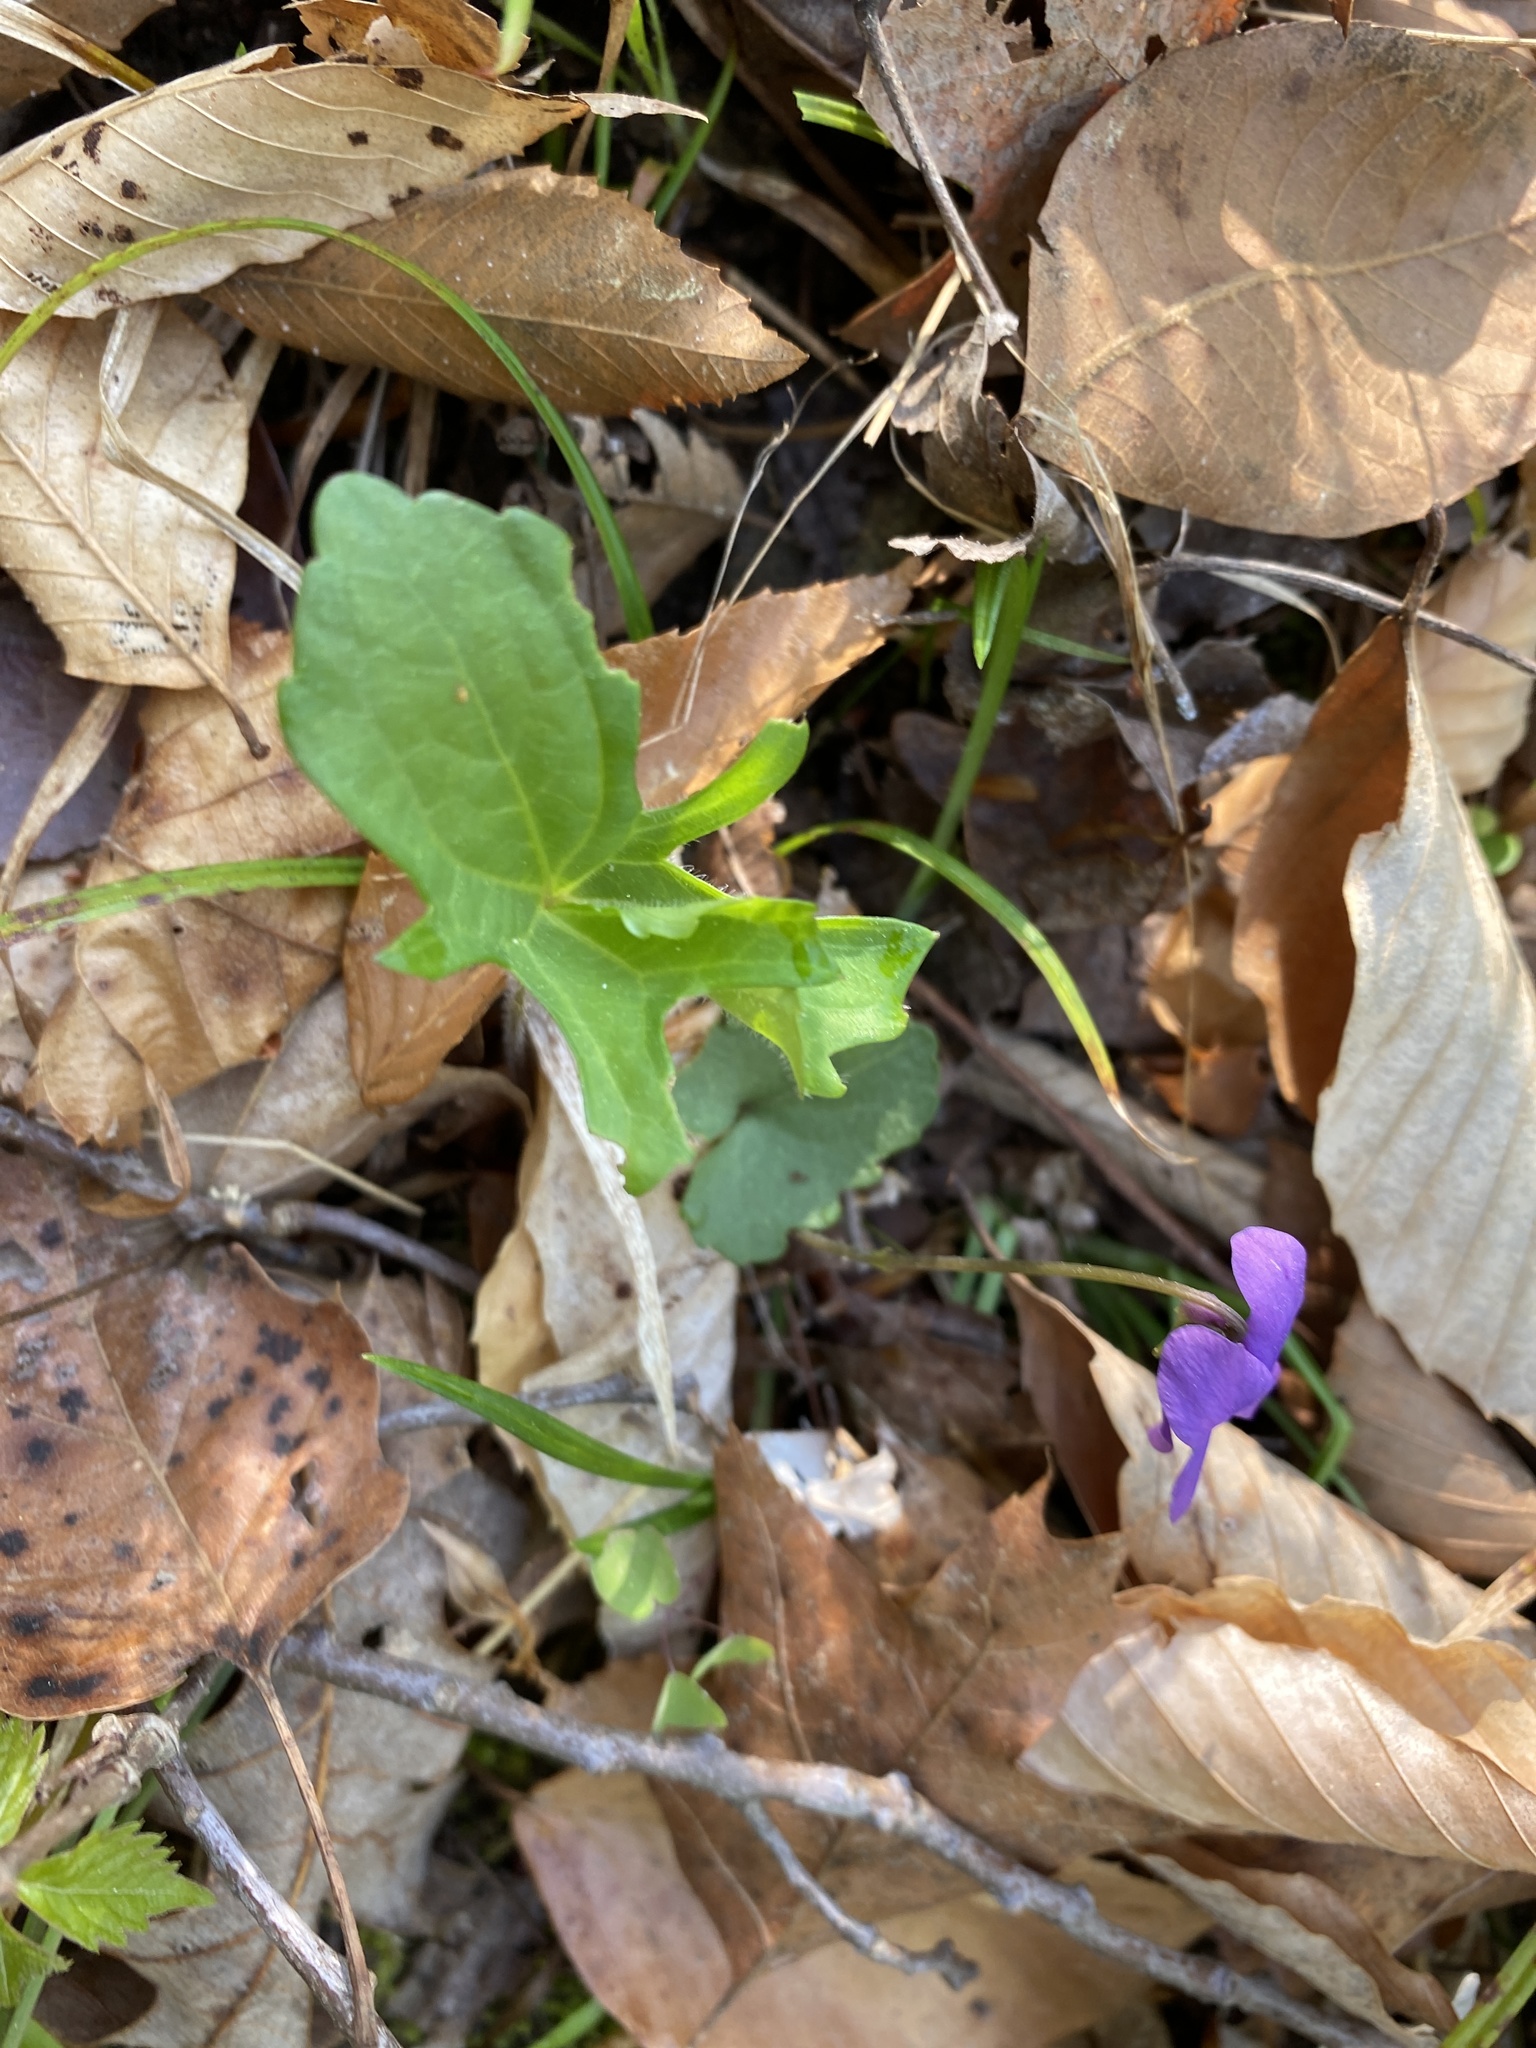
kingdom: Plantae
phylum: Tracheophyta
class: Magnoliopsida
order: Malpighiales
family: Violaceae
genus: Viola
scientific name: Viola palmata
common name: Early blue violet
